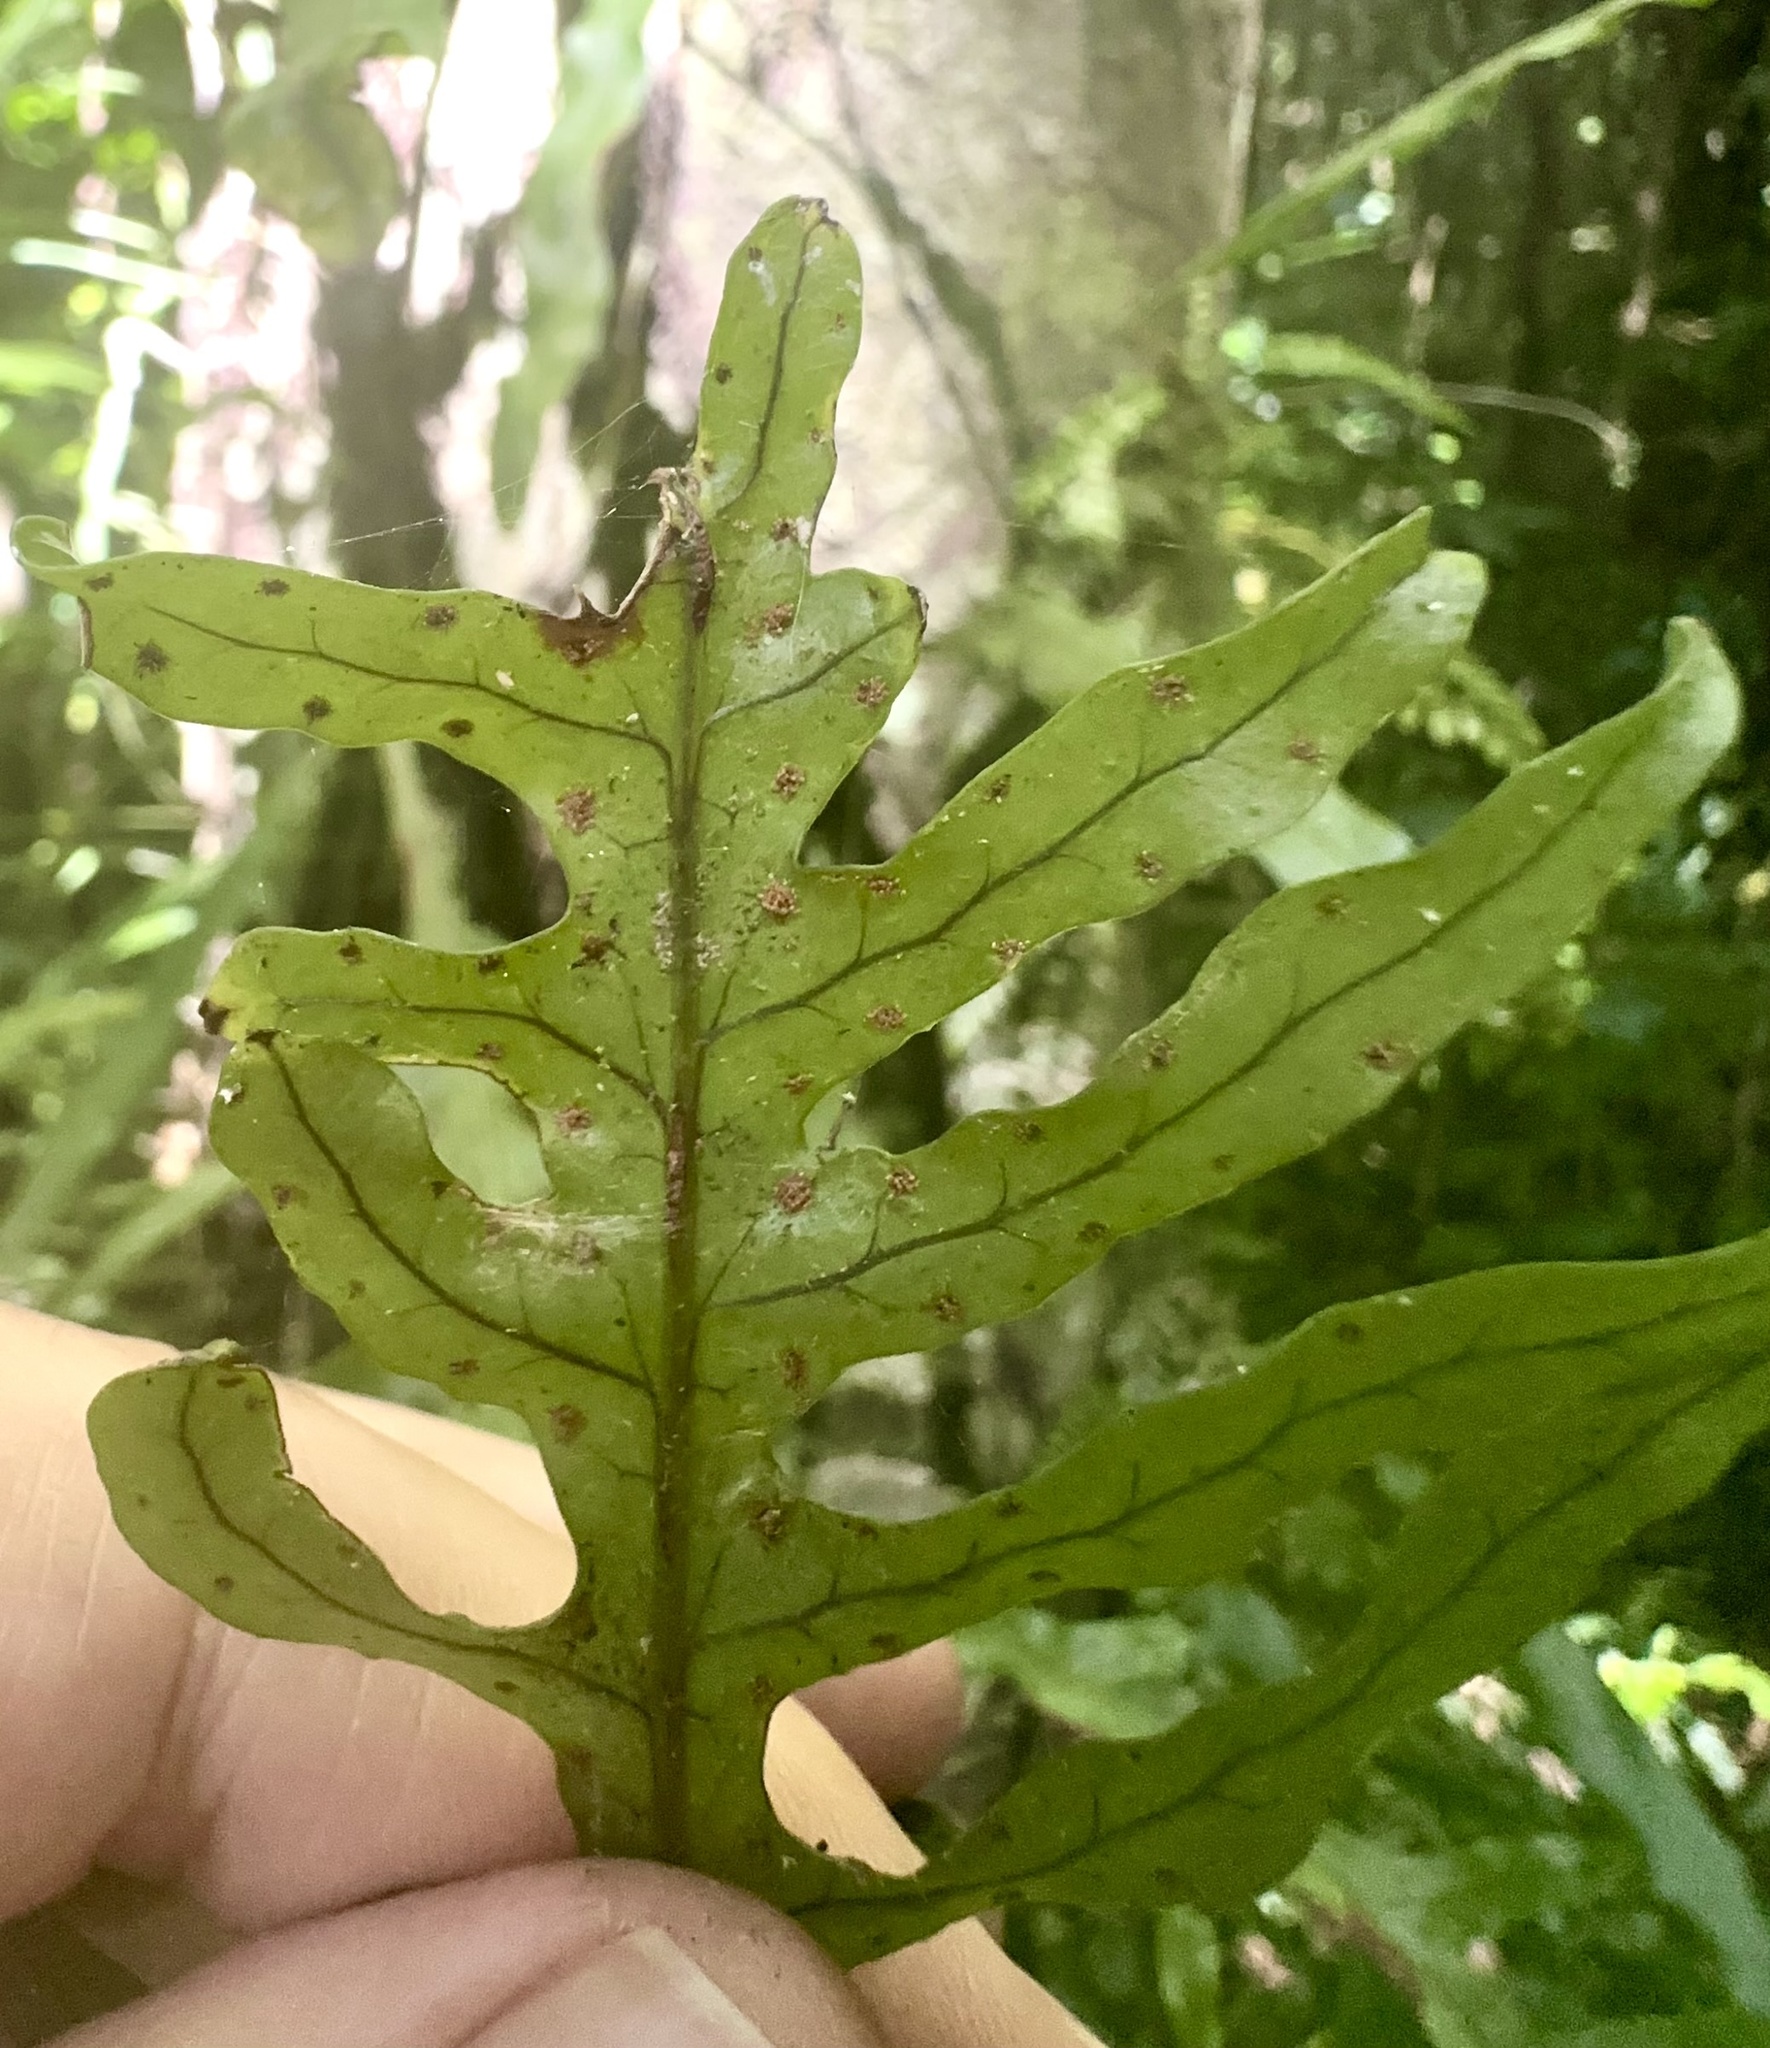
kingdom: Plantae
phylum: Tracheophyta
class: Polypodiopsida
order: Polypodiales
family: Polypodiaceae
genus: Lecanopteris
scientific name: Lecanopteris scandens
